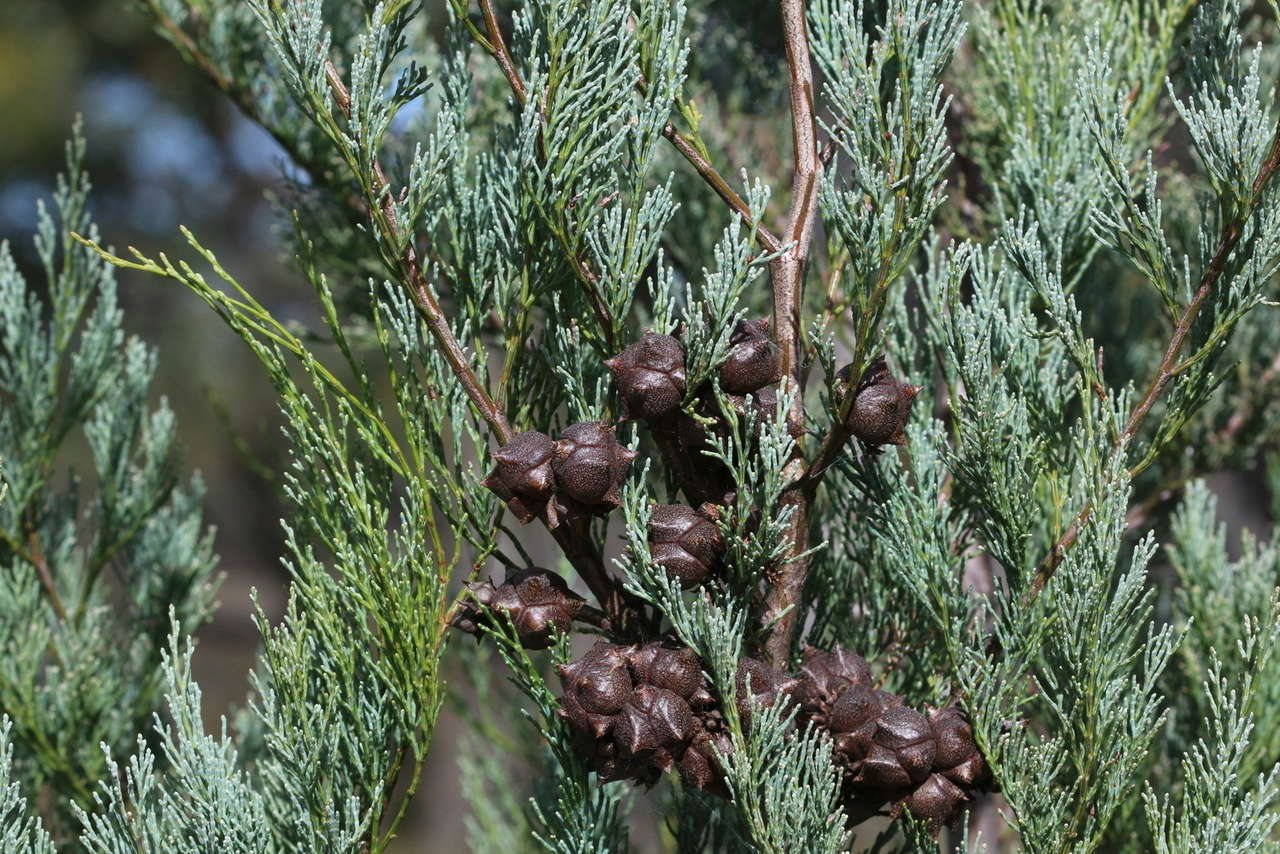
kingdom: Plantae
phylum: Tracheophyta
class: Pinopsida
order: Pinales
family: Cupressaceae
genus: Callitris
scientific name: Callitris rhomboidea
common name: Illawara mountain pine
